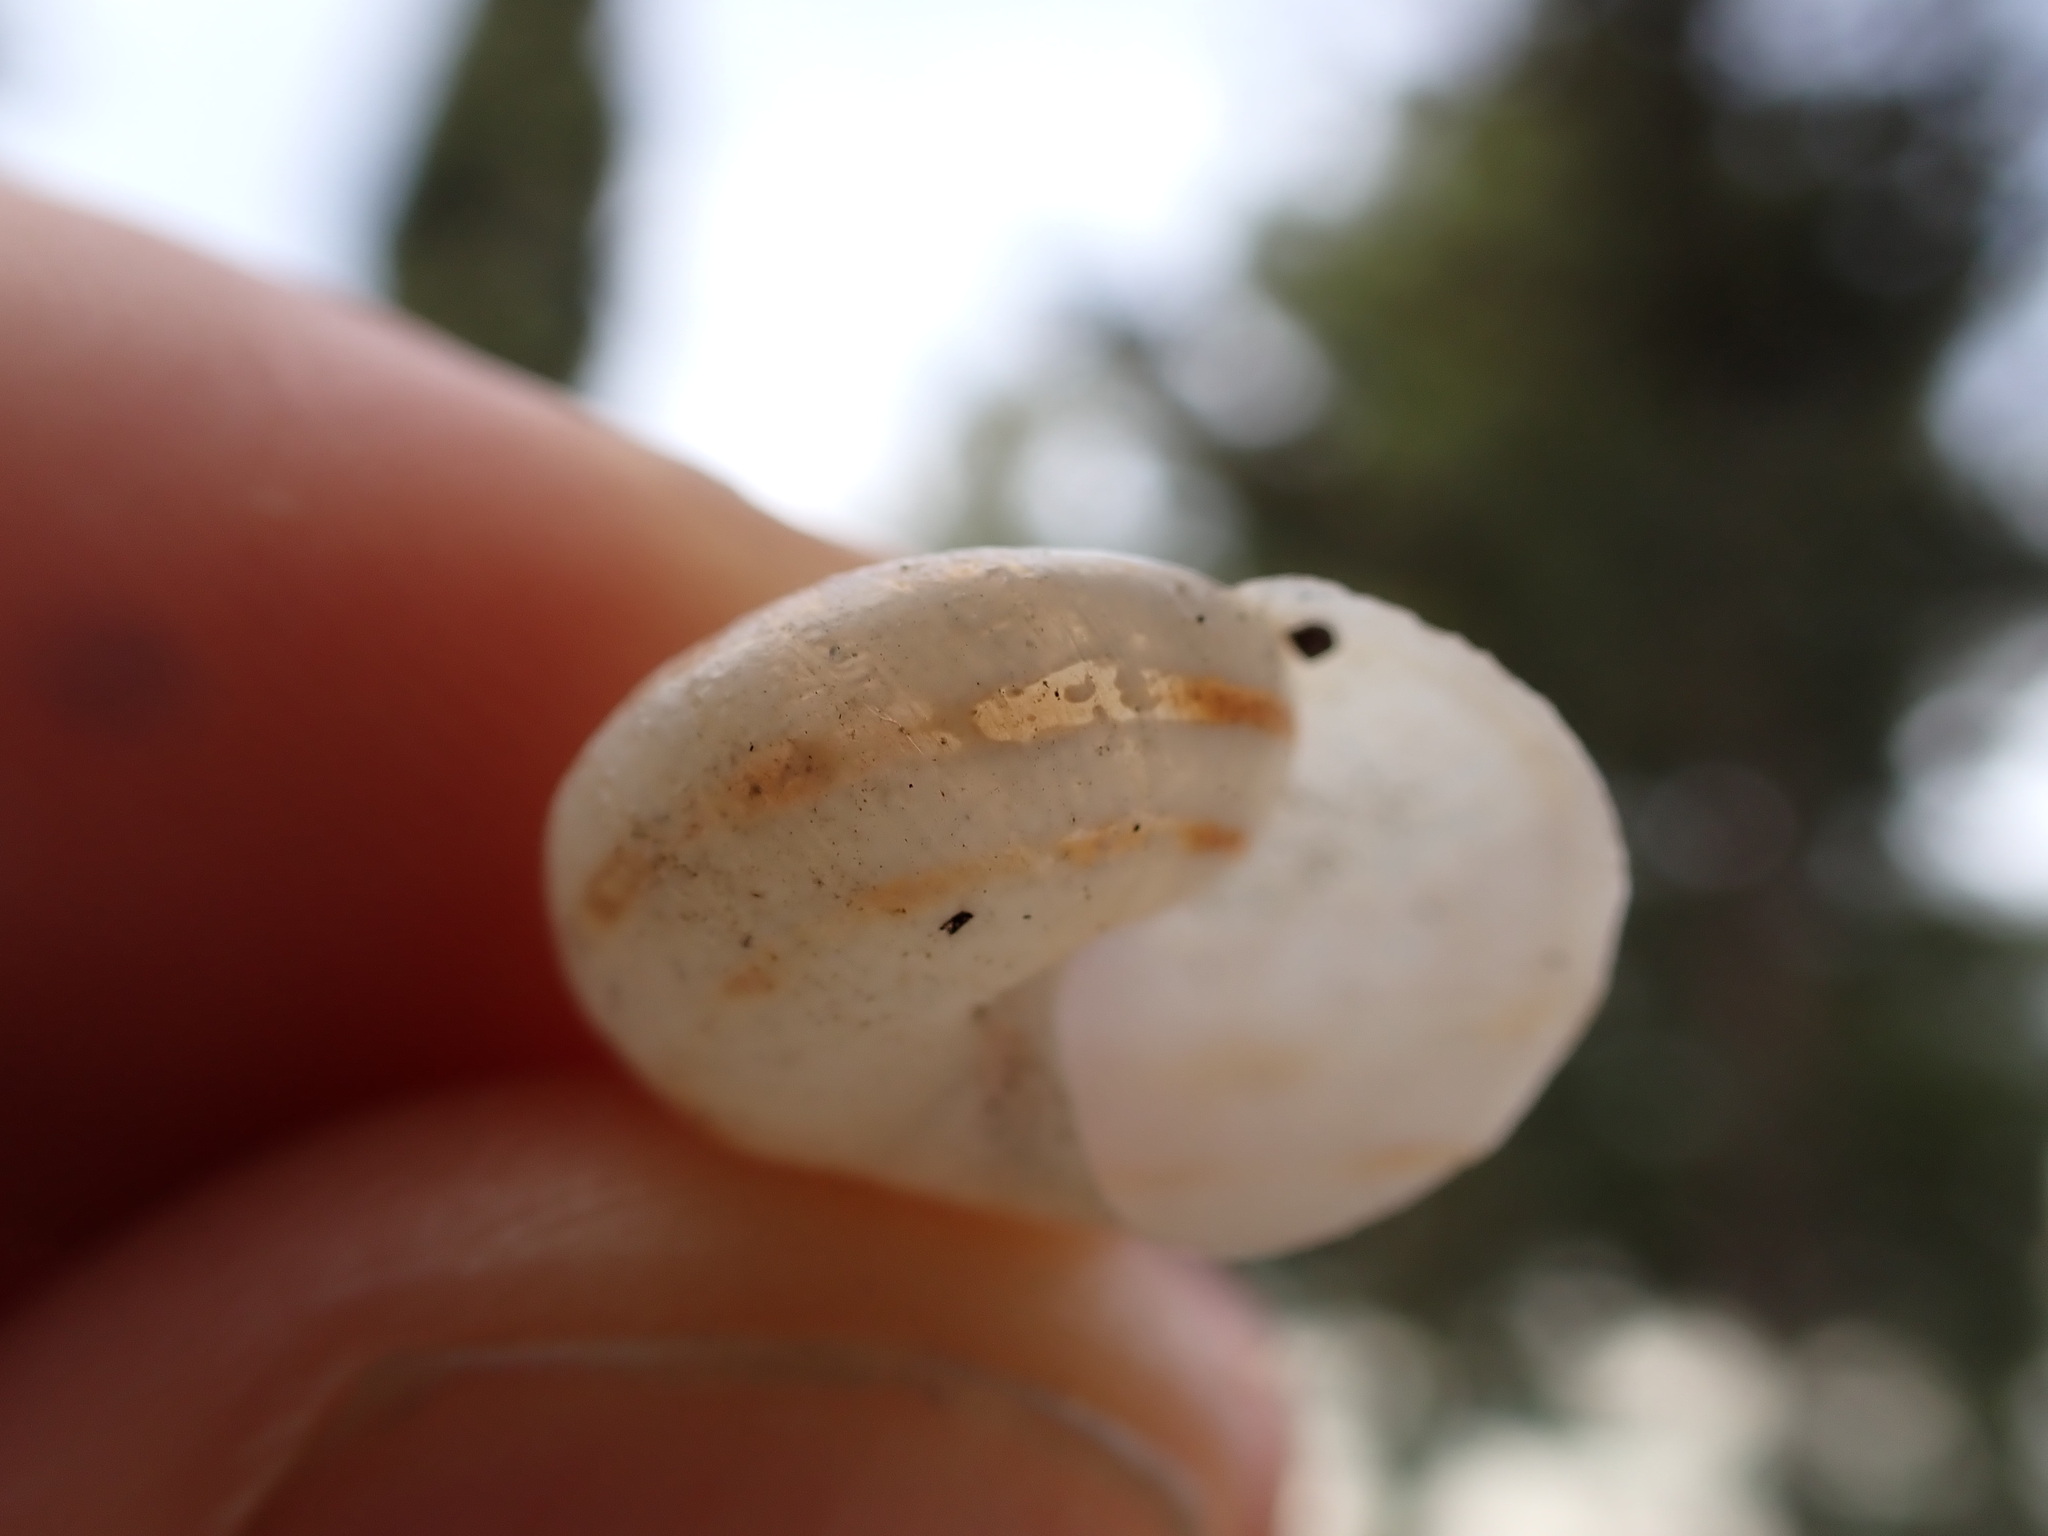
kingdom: Animalia
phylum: Mollusca
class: Gastropoda
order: Stylommatophora
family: Helicidae
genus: Eobania
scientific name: Eobania vermiculata
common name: Chocolateband snail
